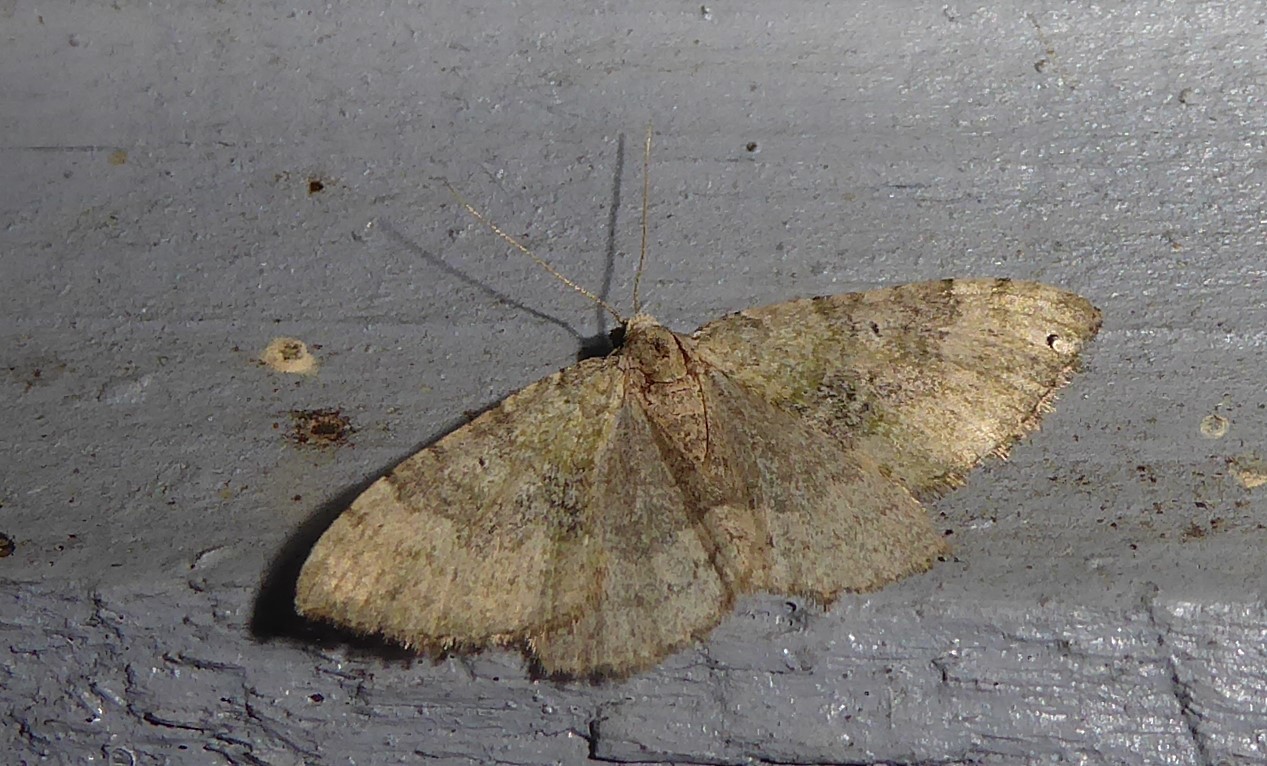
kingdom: Animalia
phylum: Arthropoda
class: Insecta
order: Lepidoptera
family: Geometridae
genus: Epyaxa
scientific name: Epyaxa rosearia
